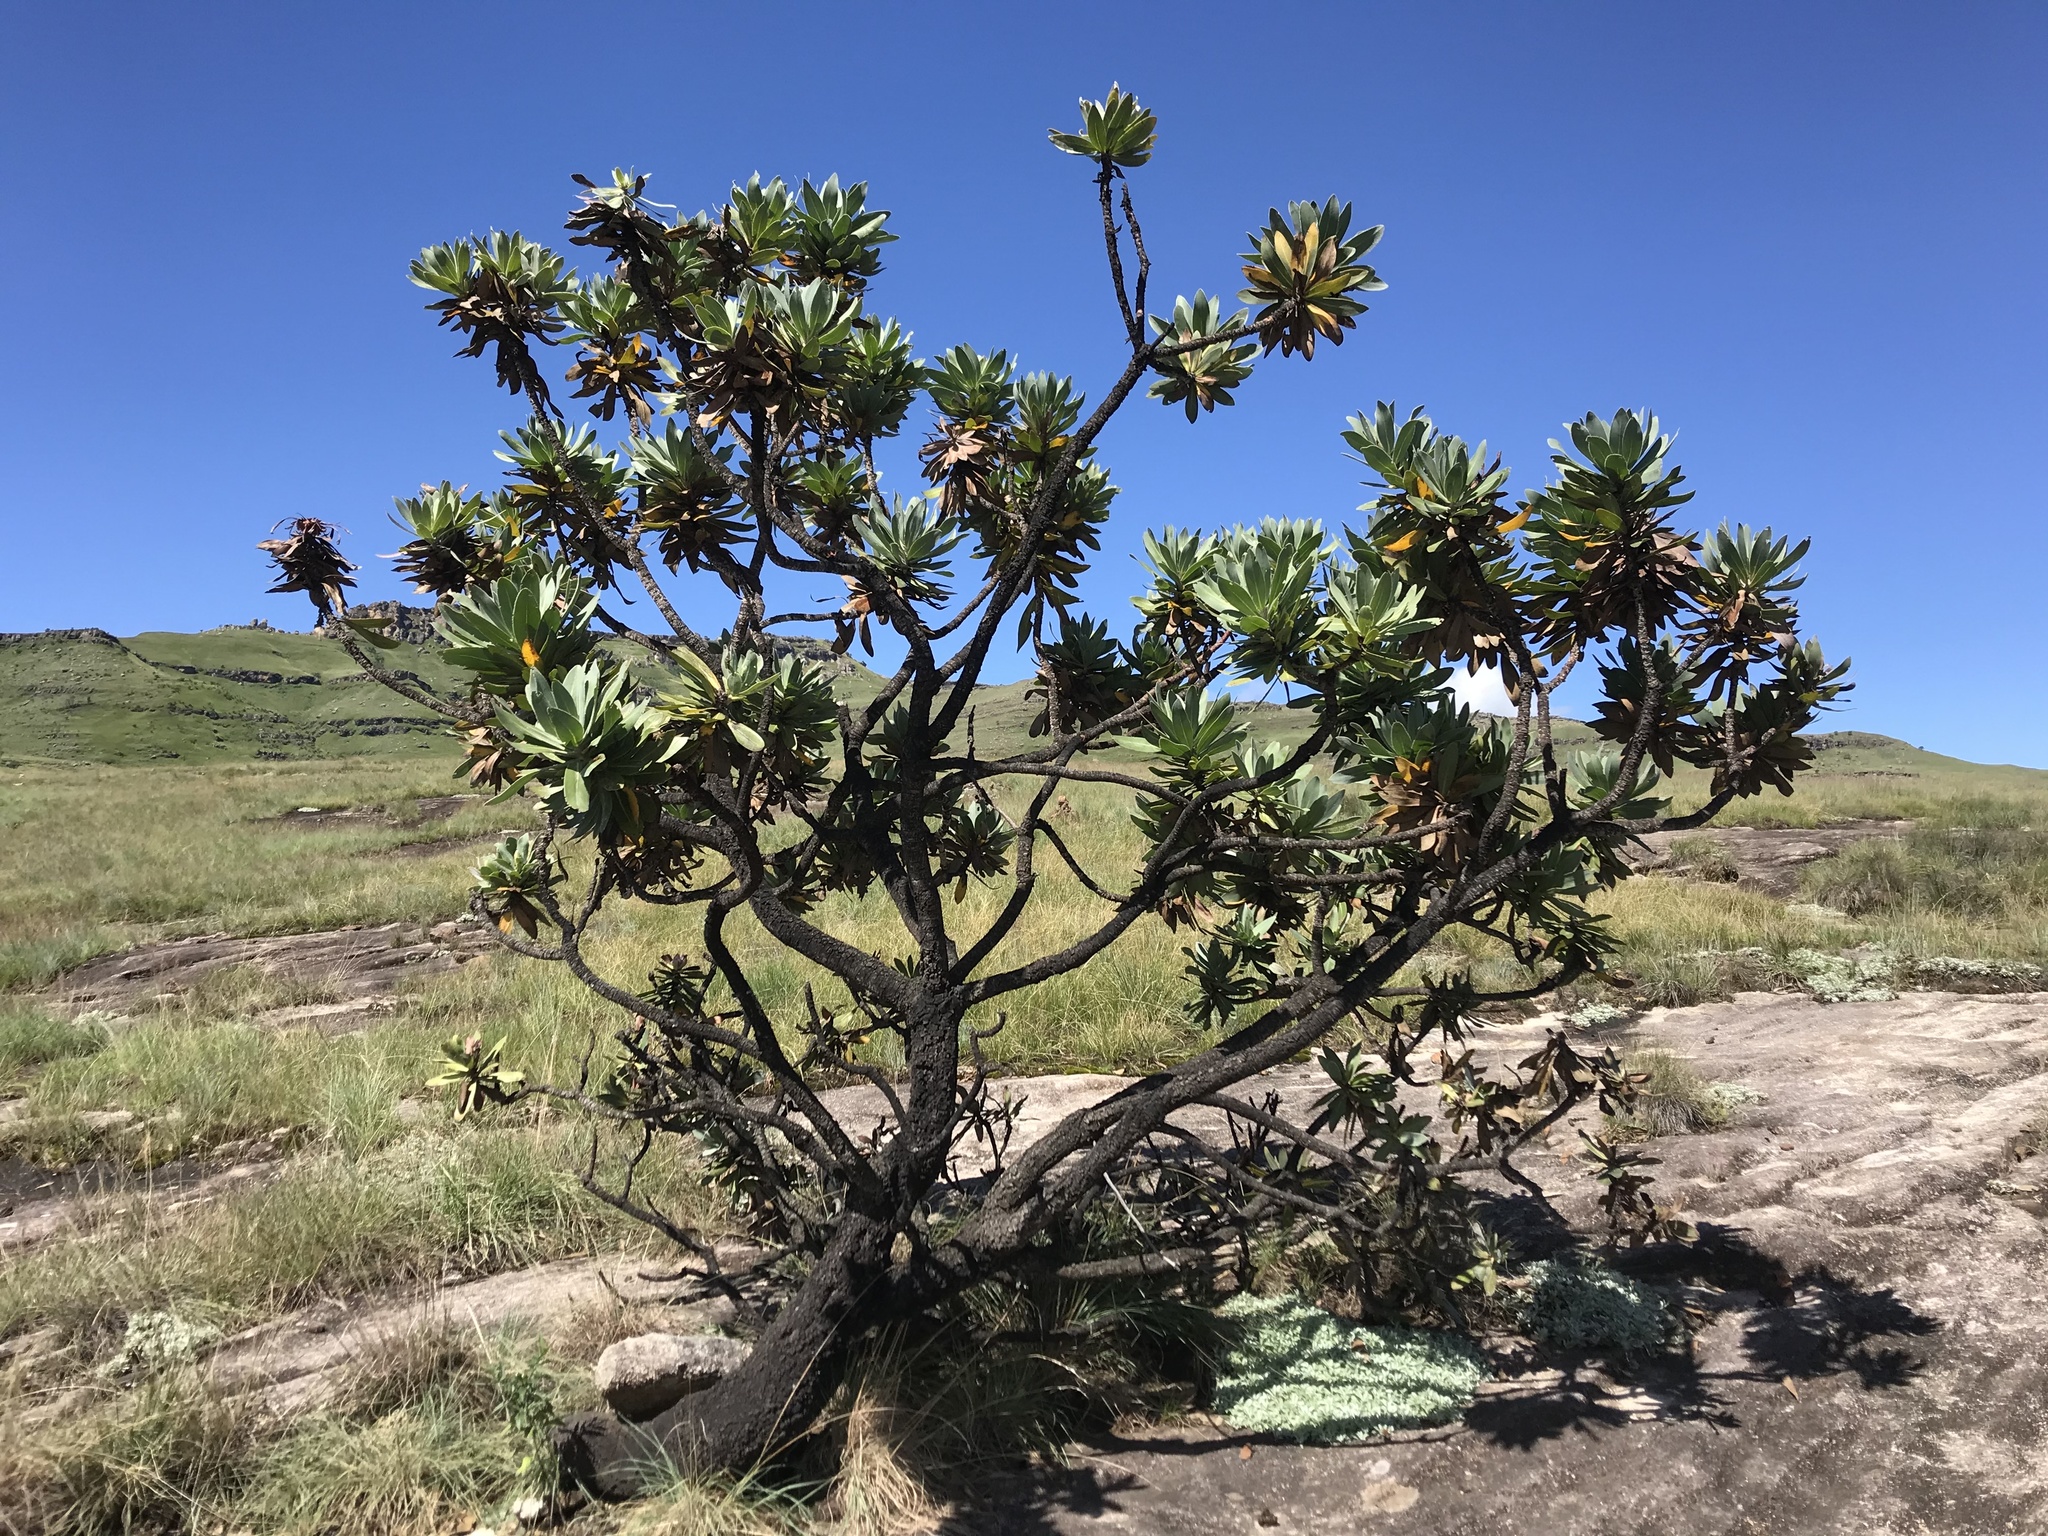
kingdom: Plantae
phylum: Tracheophyta
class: Magnoliopsida
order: Proteales
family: Proteaceae
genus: Protea
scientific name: Protea roupelliae
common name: Silver sugarbush
